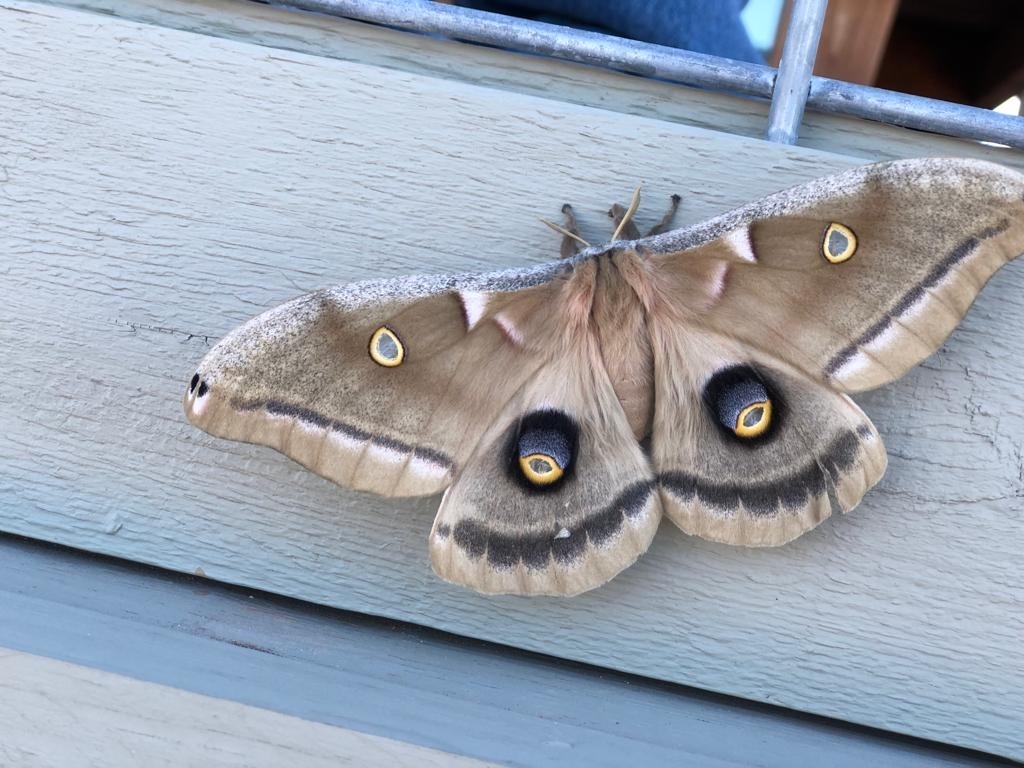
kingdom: Animalia
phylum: Arthropoda
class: Insecta
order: Lepidoptera
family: Saturniidae
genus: Antheraea
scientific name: Antheraea polyphemus
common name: Polyphemus moth
